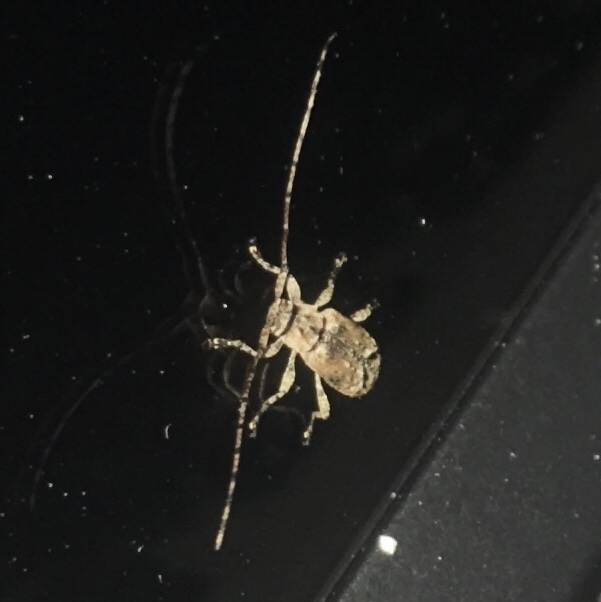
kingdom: Animalia
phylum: Arthropoda
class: Insecta
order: Coleoptera
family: Cerambycidae
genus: Sternidius
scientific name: Sternidius alpha
